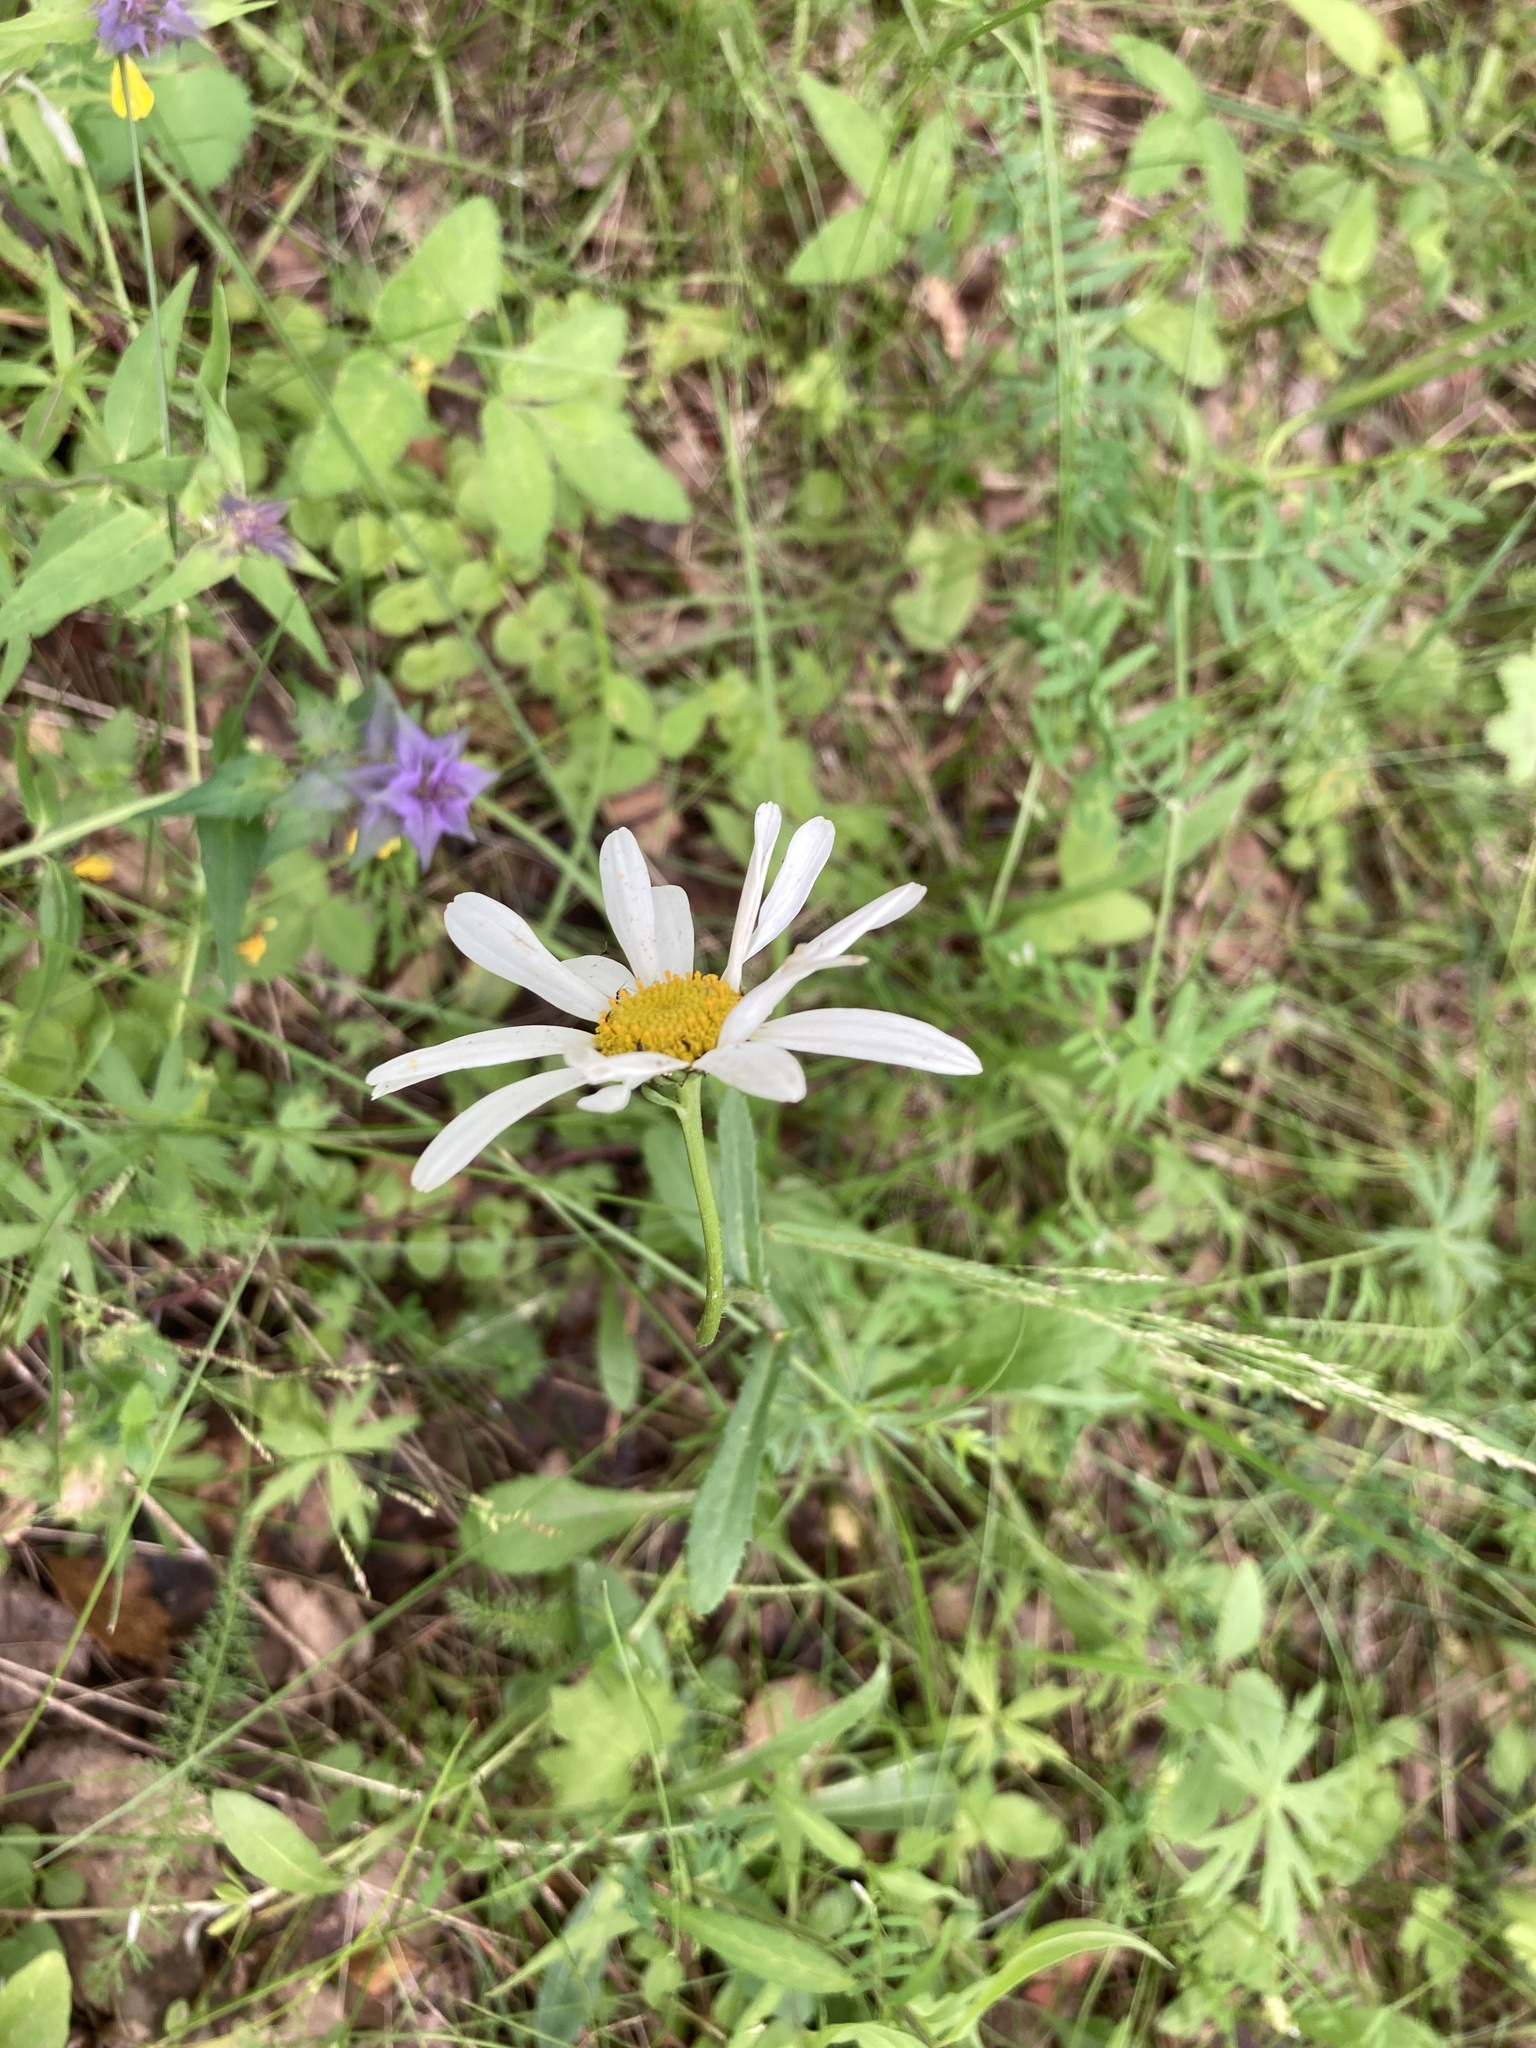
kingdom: Plantae
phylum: Tracheophyta
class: Magnoliopsida
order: Asterales
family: Asteraceae
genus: Leucanthemum
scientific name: Leucanthemum vulgare
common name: Oxeye daisy
